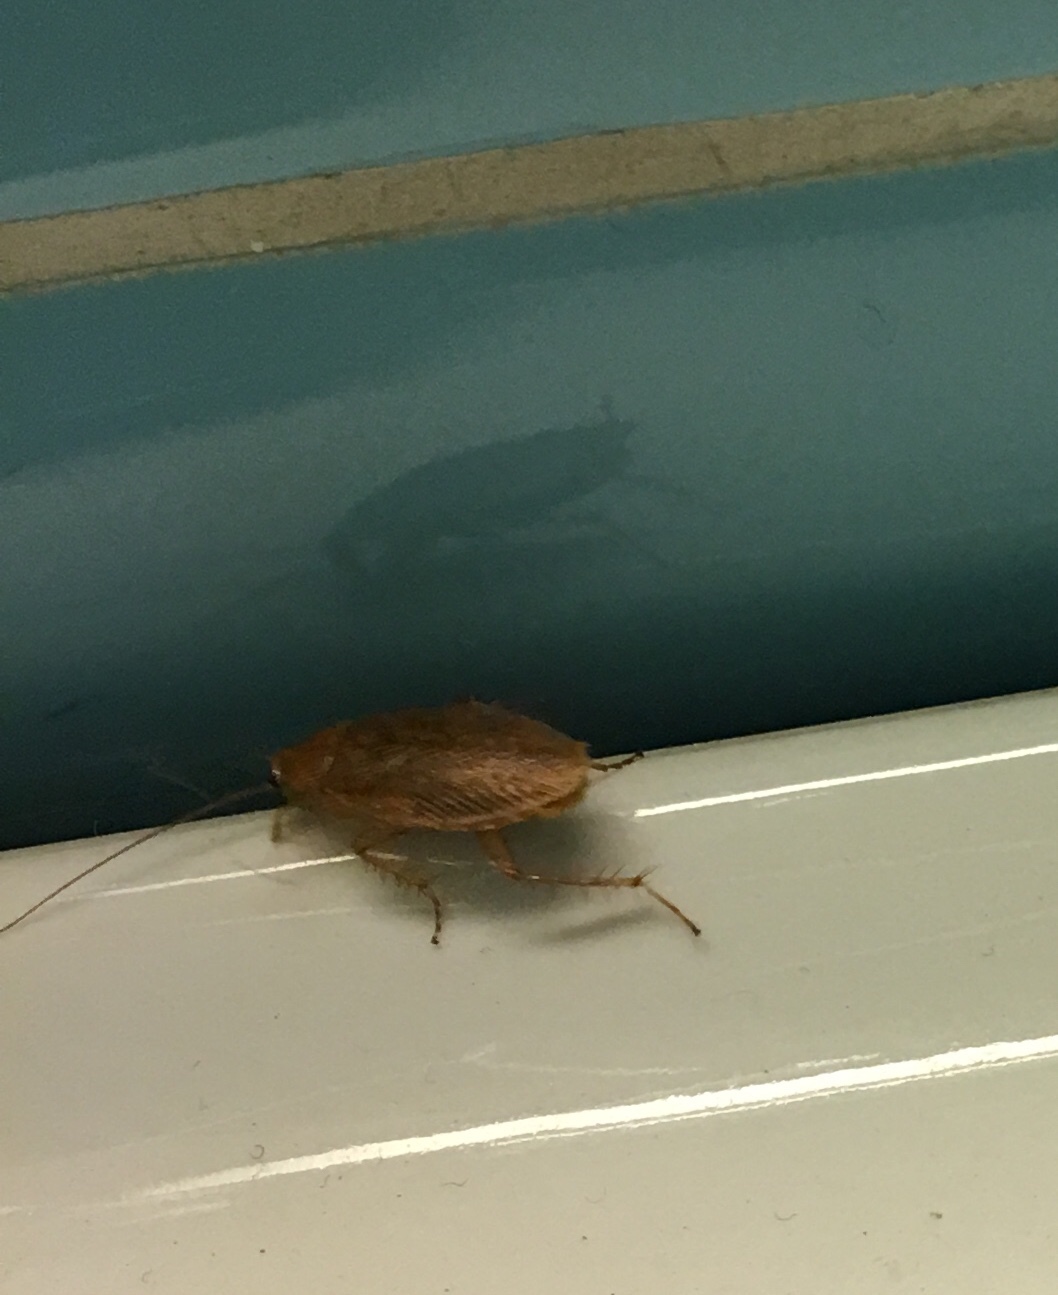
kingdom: Animalia
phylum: Arthropoda
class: Insecta
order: Blattodea
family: Ectobiidae
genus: Ectobius
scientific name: Ectobius vittiventris
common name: Garden cockroach
